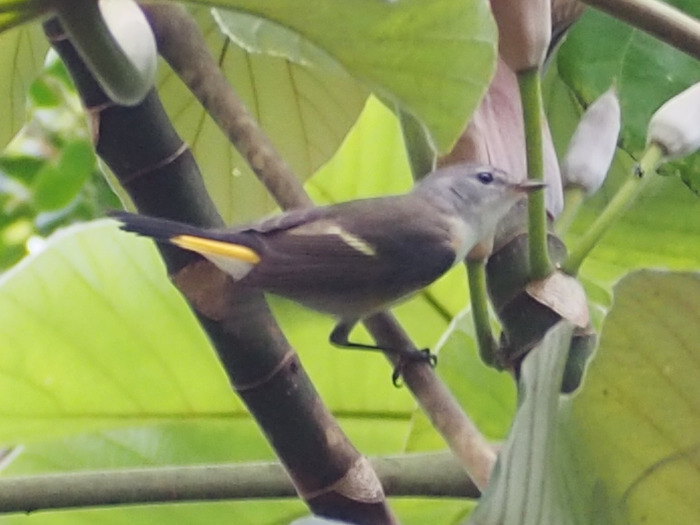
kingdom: Animalia
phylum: Chordata
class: Aves
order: Passeriformes
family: Parulidae
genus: Setophaga
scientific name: Setophaga ruticilla
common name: American redstart
